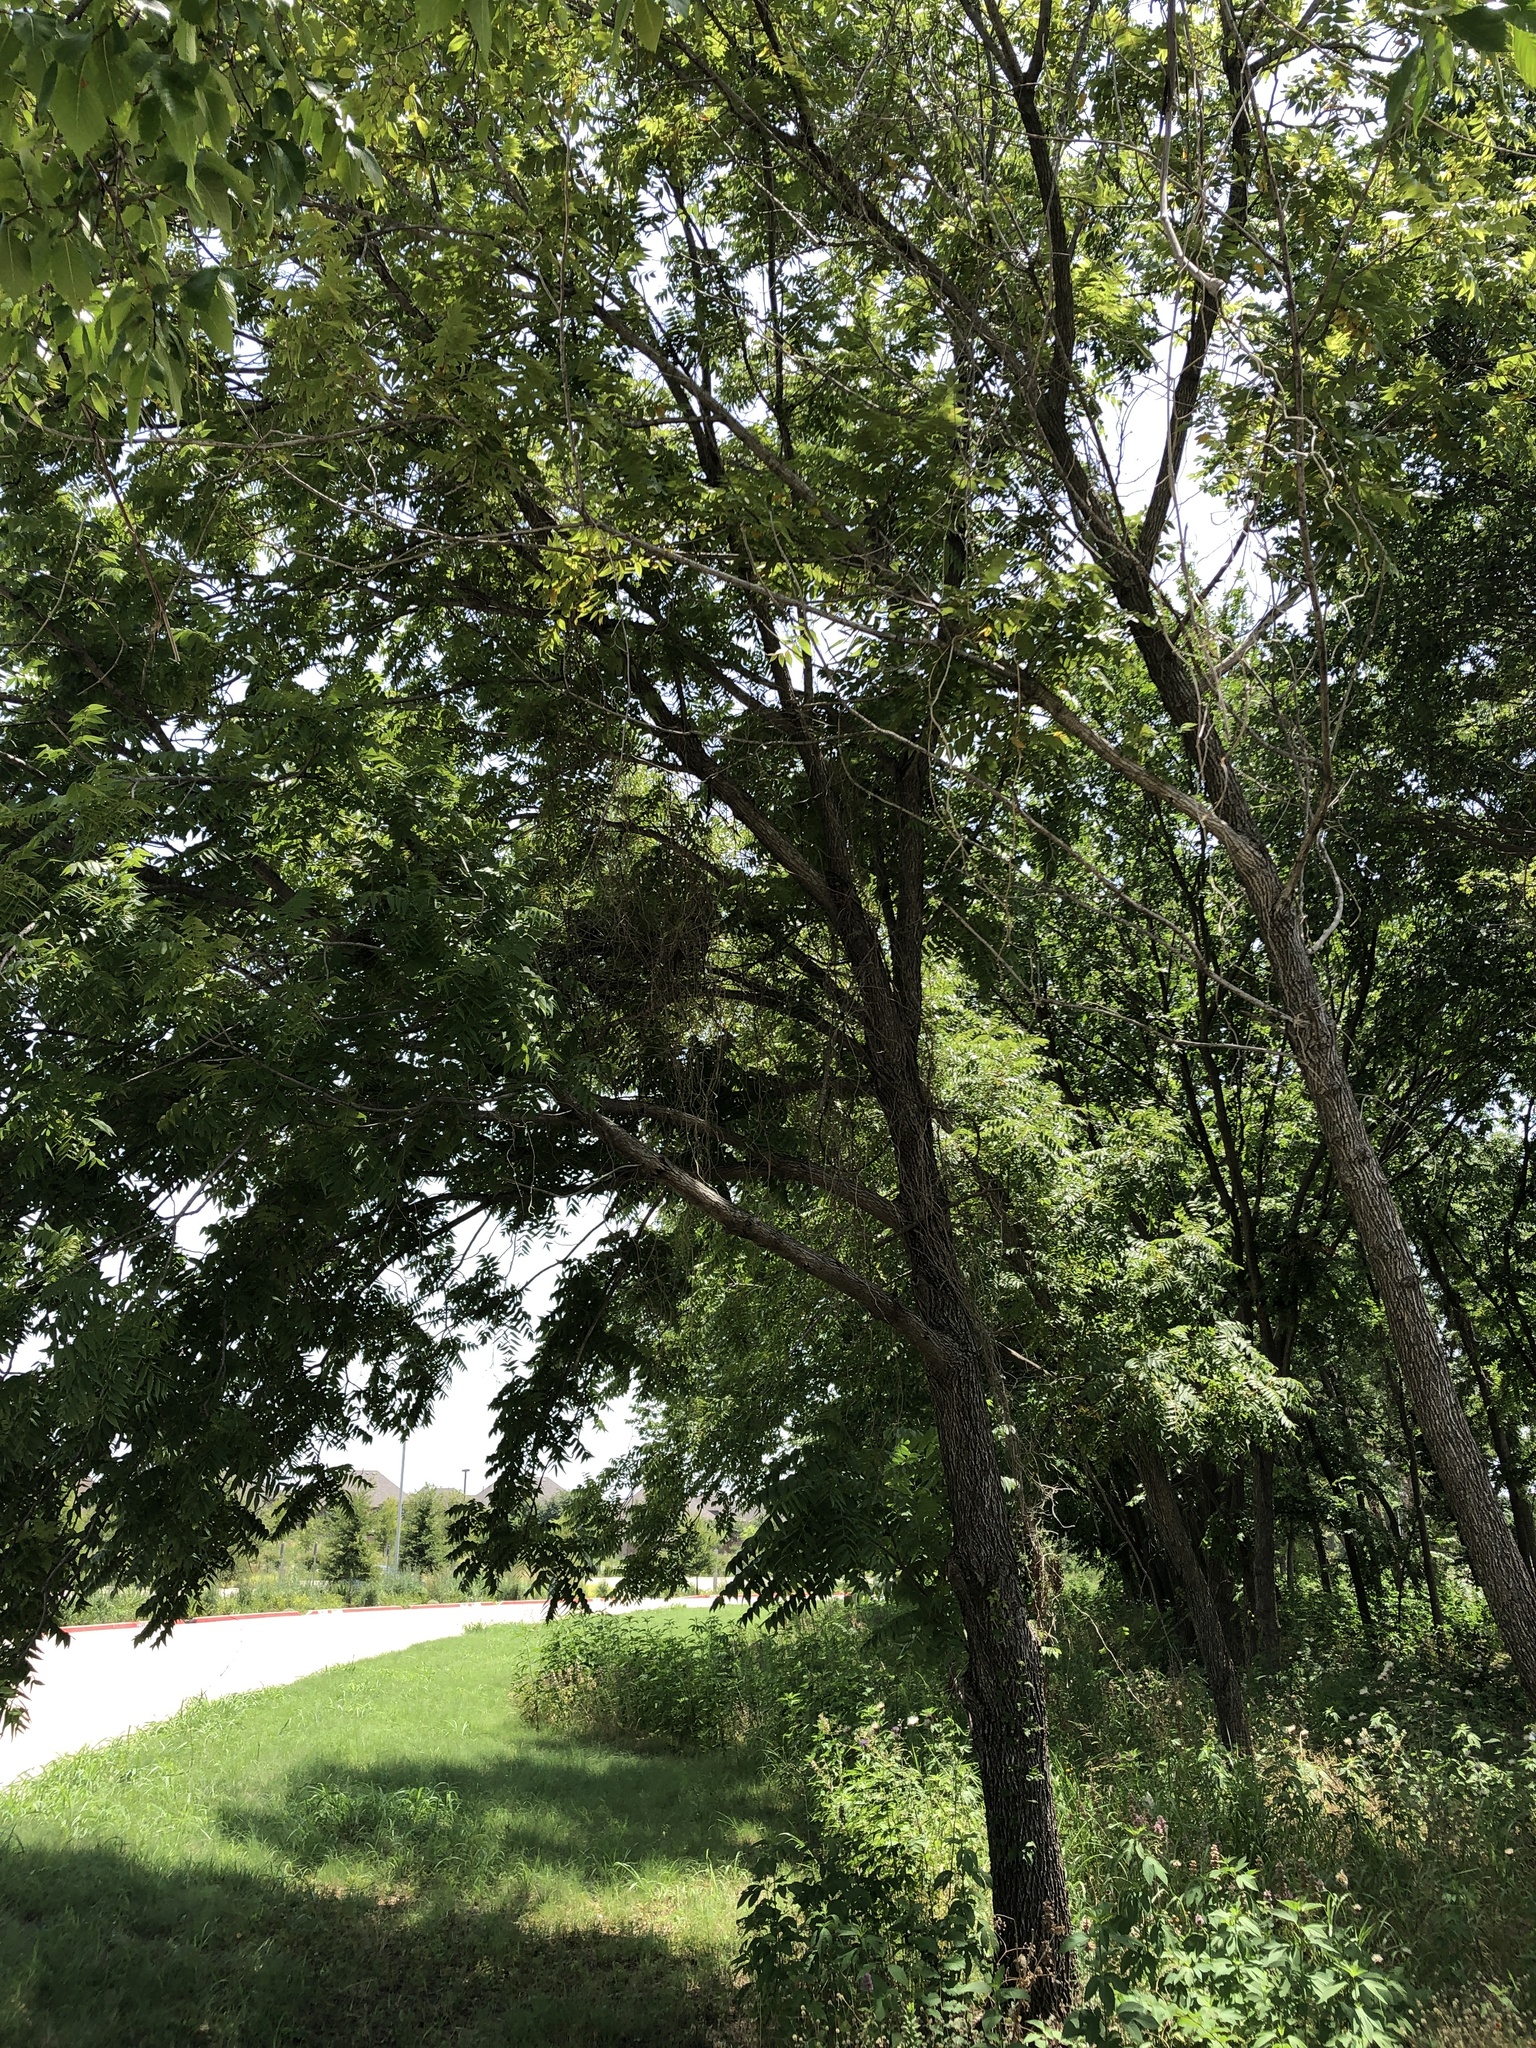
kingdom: Plantae
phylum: Tracheophyta
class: Magnoliopsida
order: Fagales
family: Juglandaceae
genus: Juglans
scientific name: Juglans nigra
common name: Black walnut
